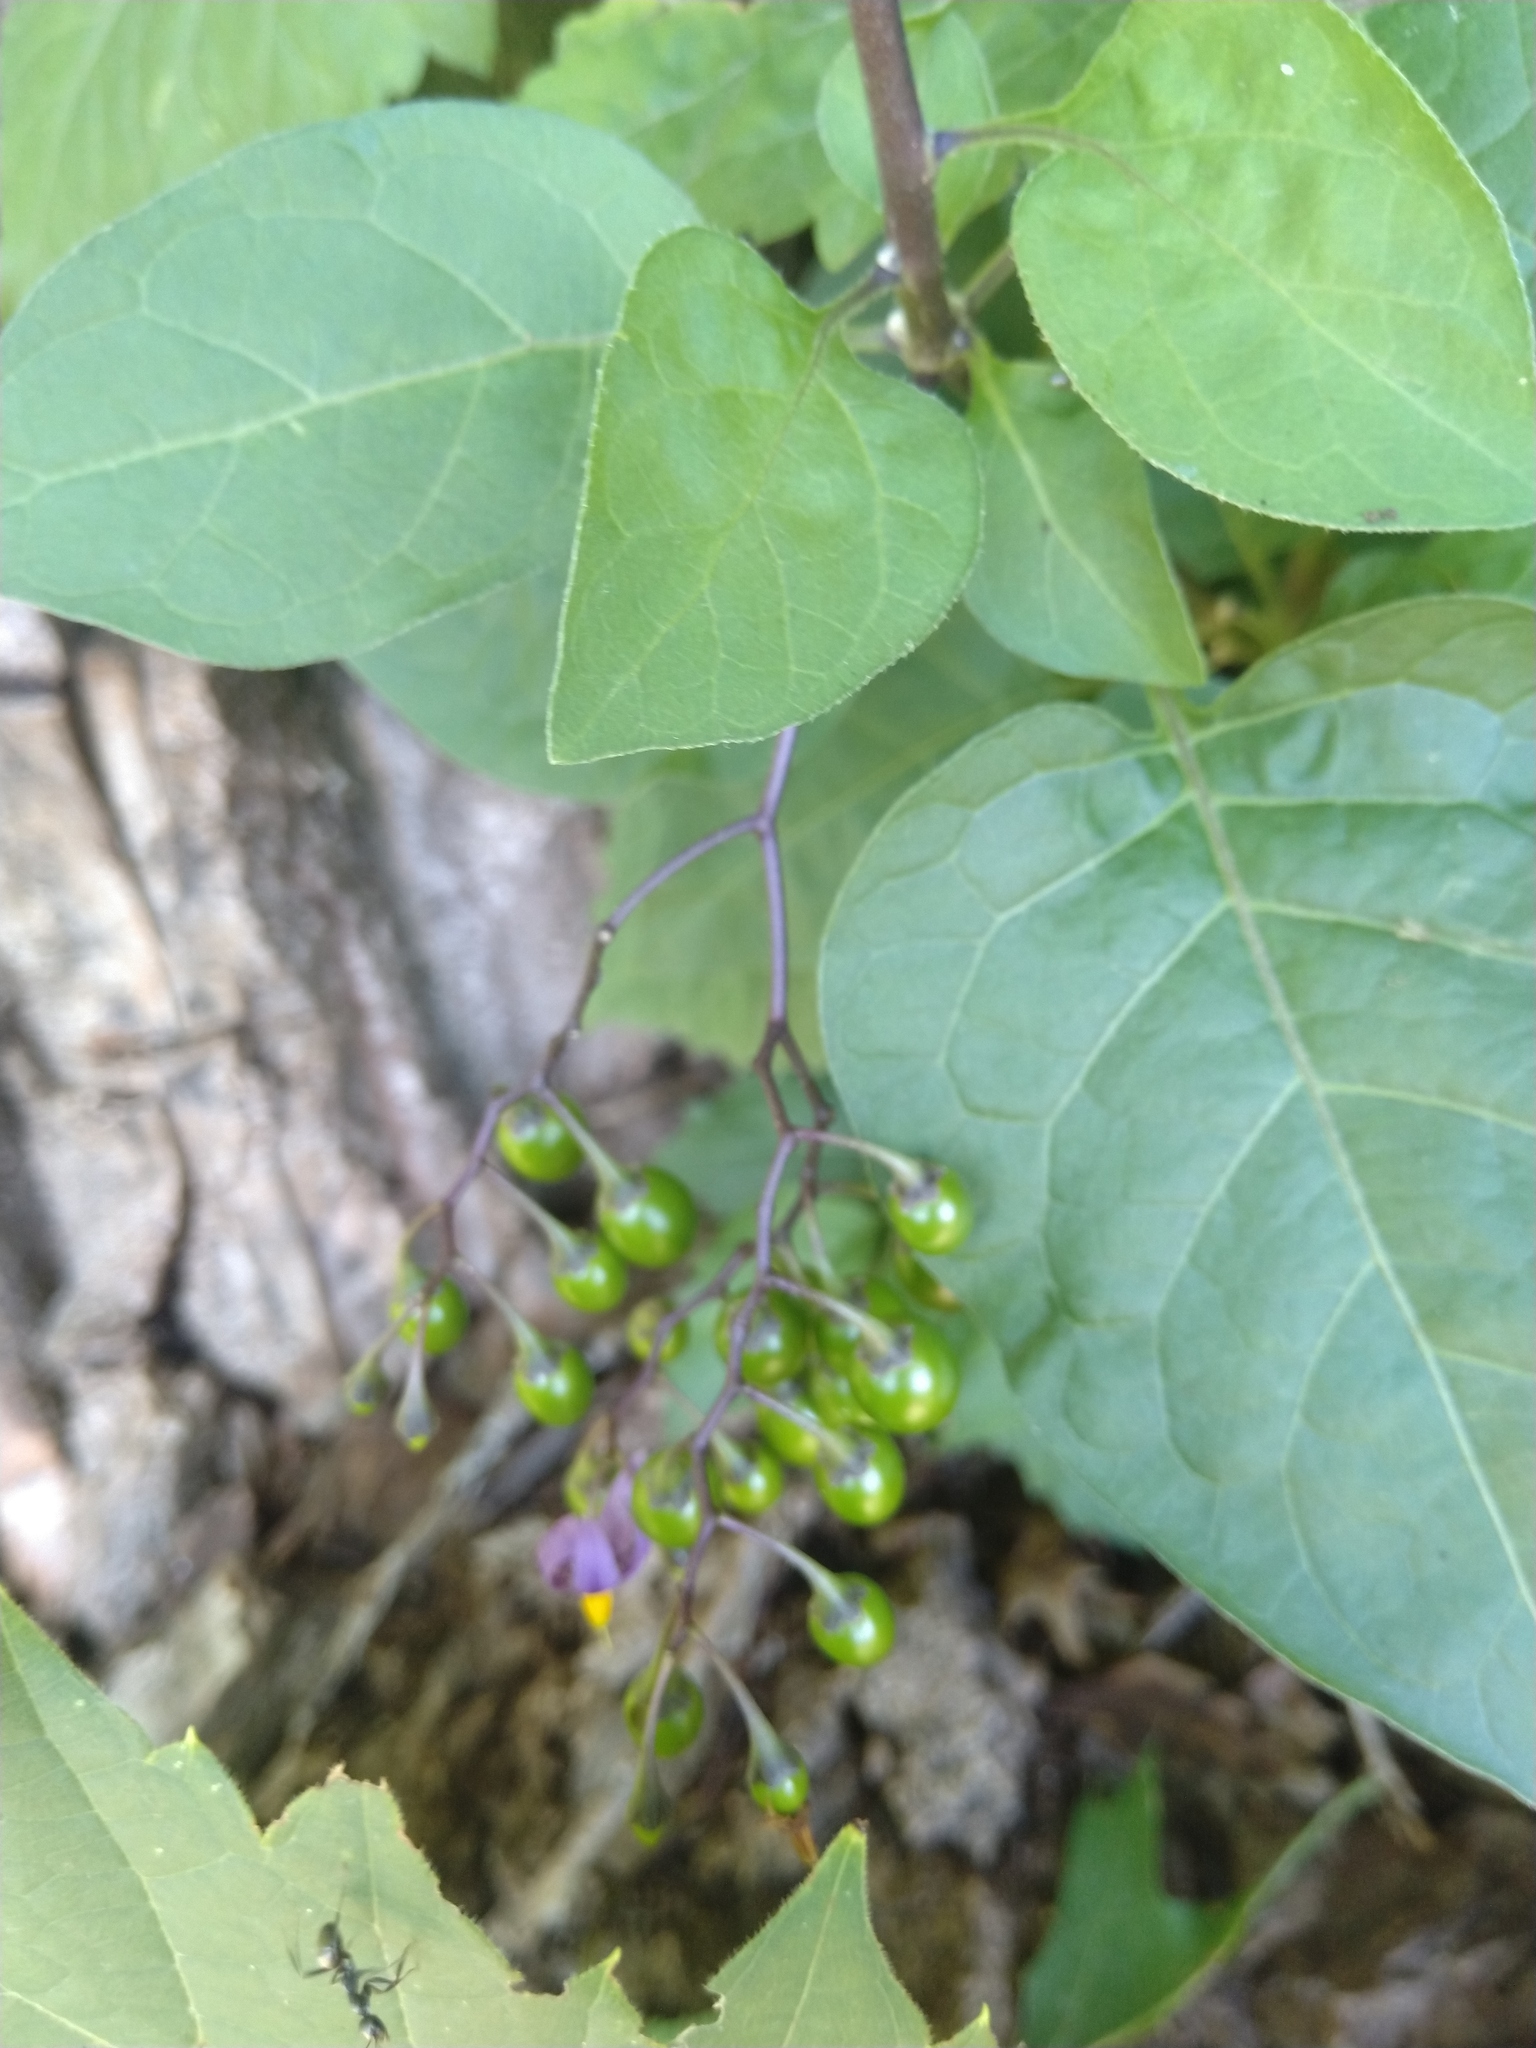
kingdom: Plantae
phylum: Tracheophyta
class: Magnoliopsida
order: Solanales
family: Solanaceae
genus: Solanum
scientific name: Solanum dulcamara
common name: Climbing nightshade
